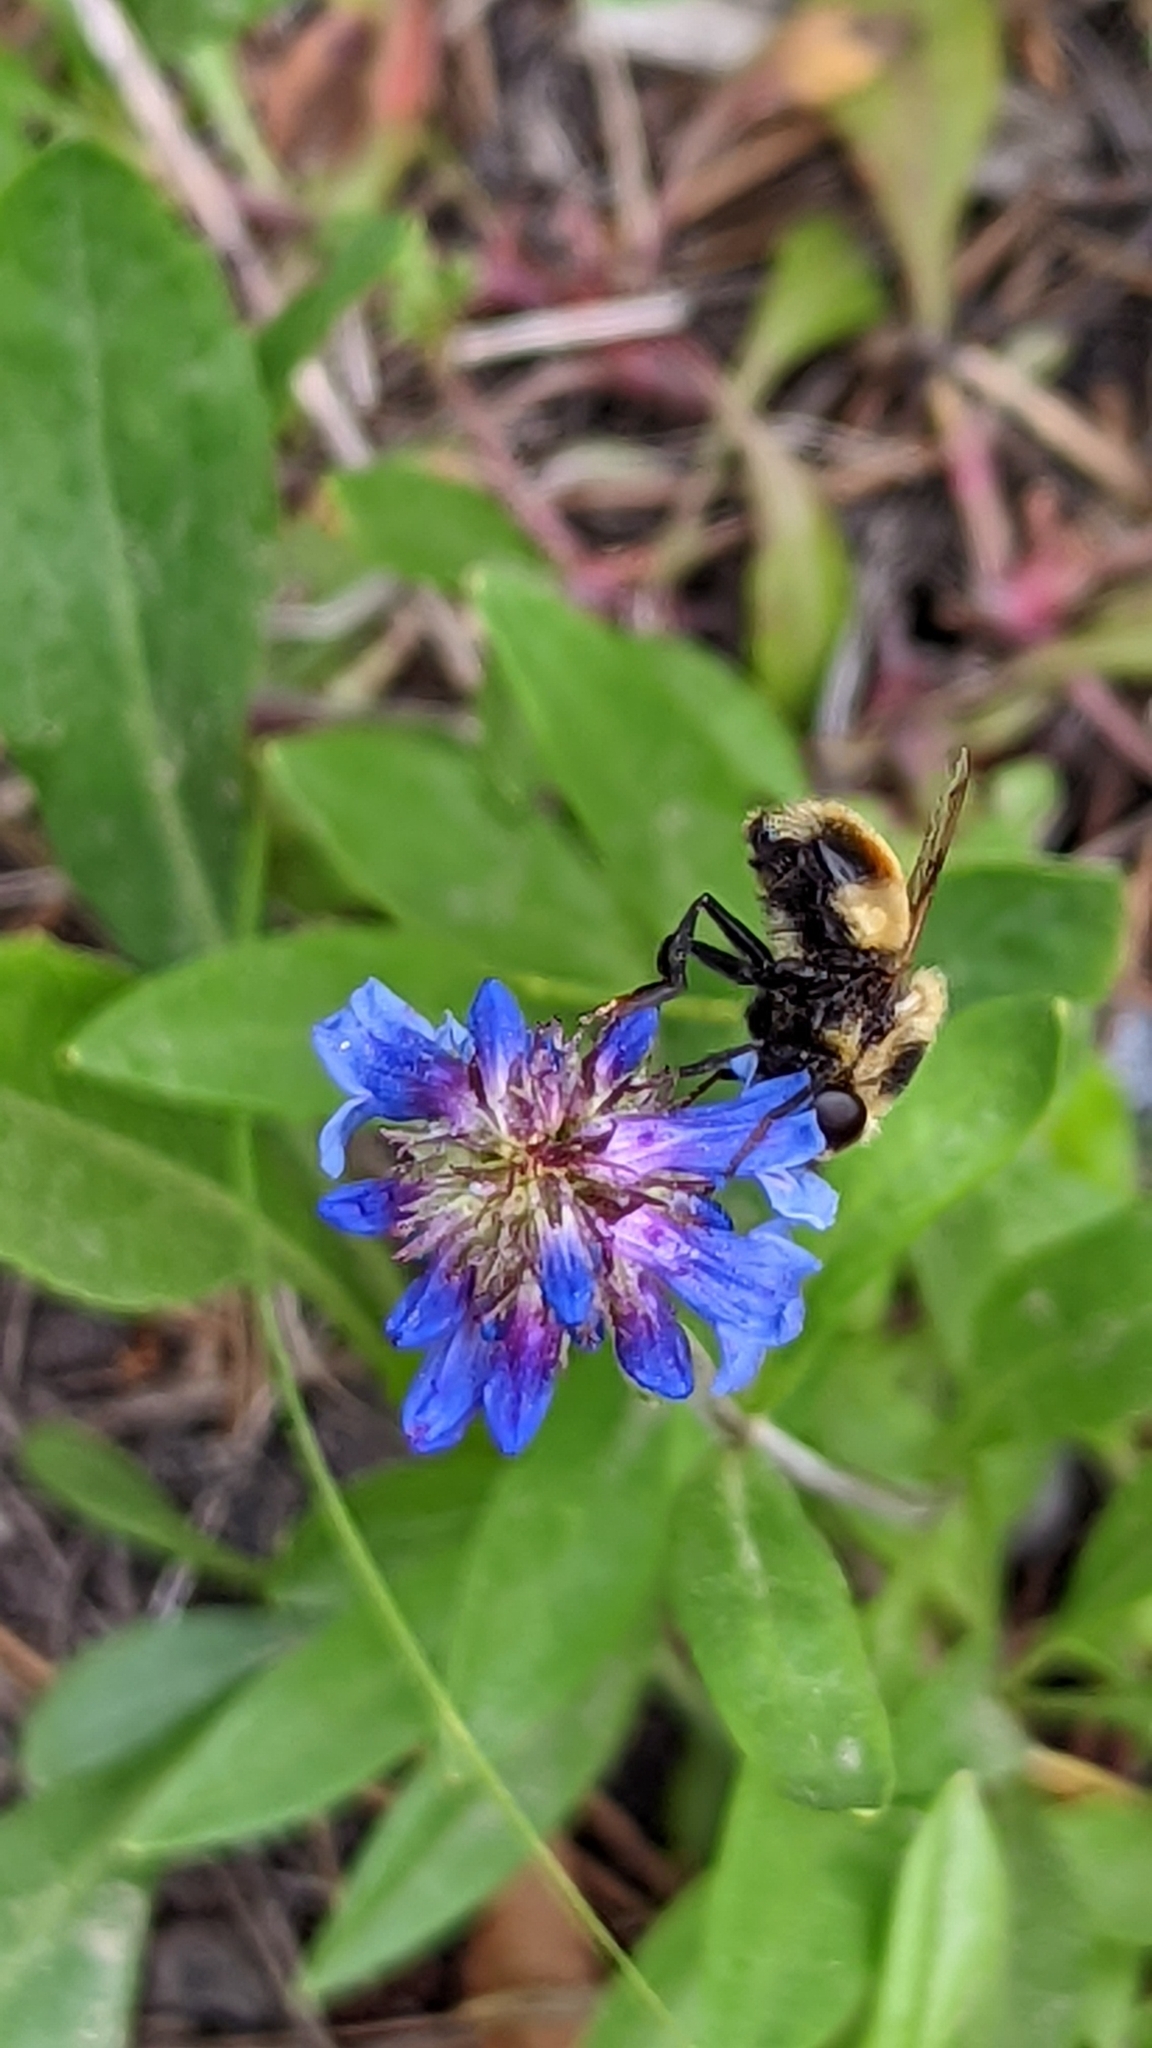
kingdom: Animalia
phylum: Arthropoda
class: Insecta
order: Diptera
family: Syrphidae
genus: Volucella
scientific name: Volucella facialis
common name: Yellow-faced swiftwing
